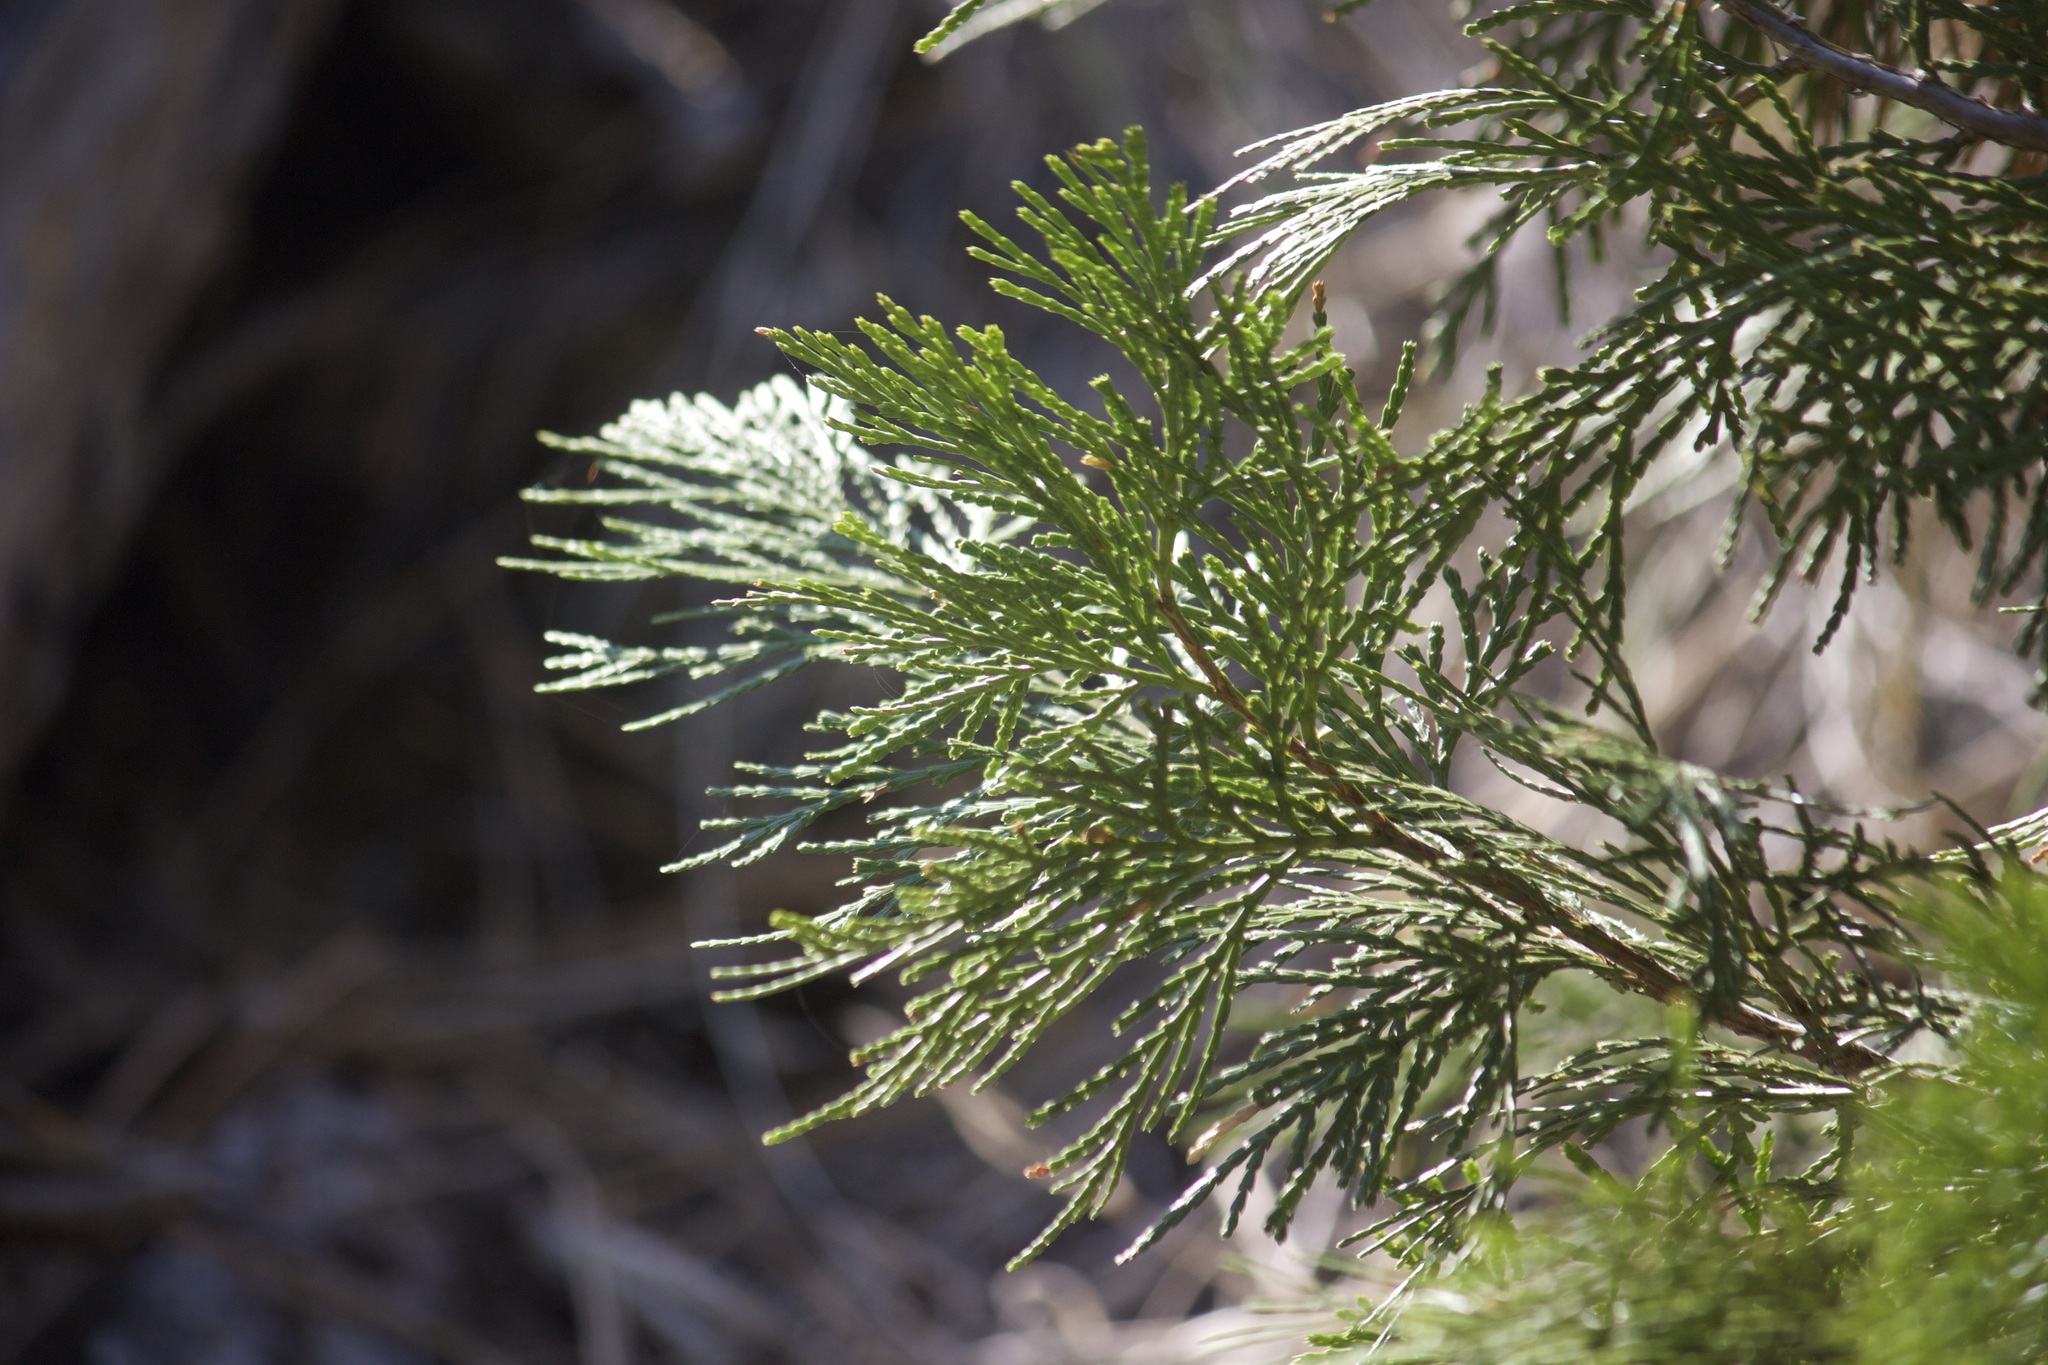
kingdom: Plantae
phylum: Tracheophyta
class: Pinopsida
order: Pinales
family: Cupressaceae
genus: Calocedrus
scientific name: Calocedrus decurrens
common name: Californian incense-cedar
